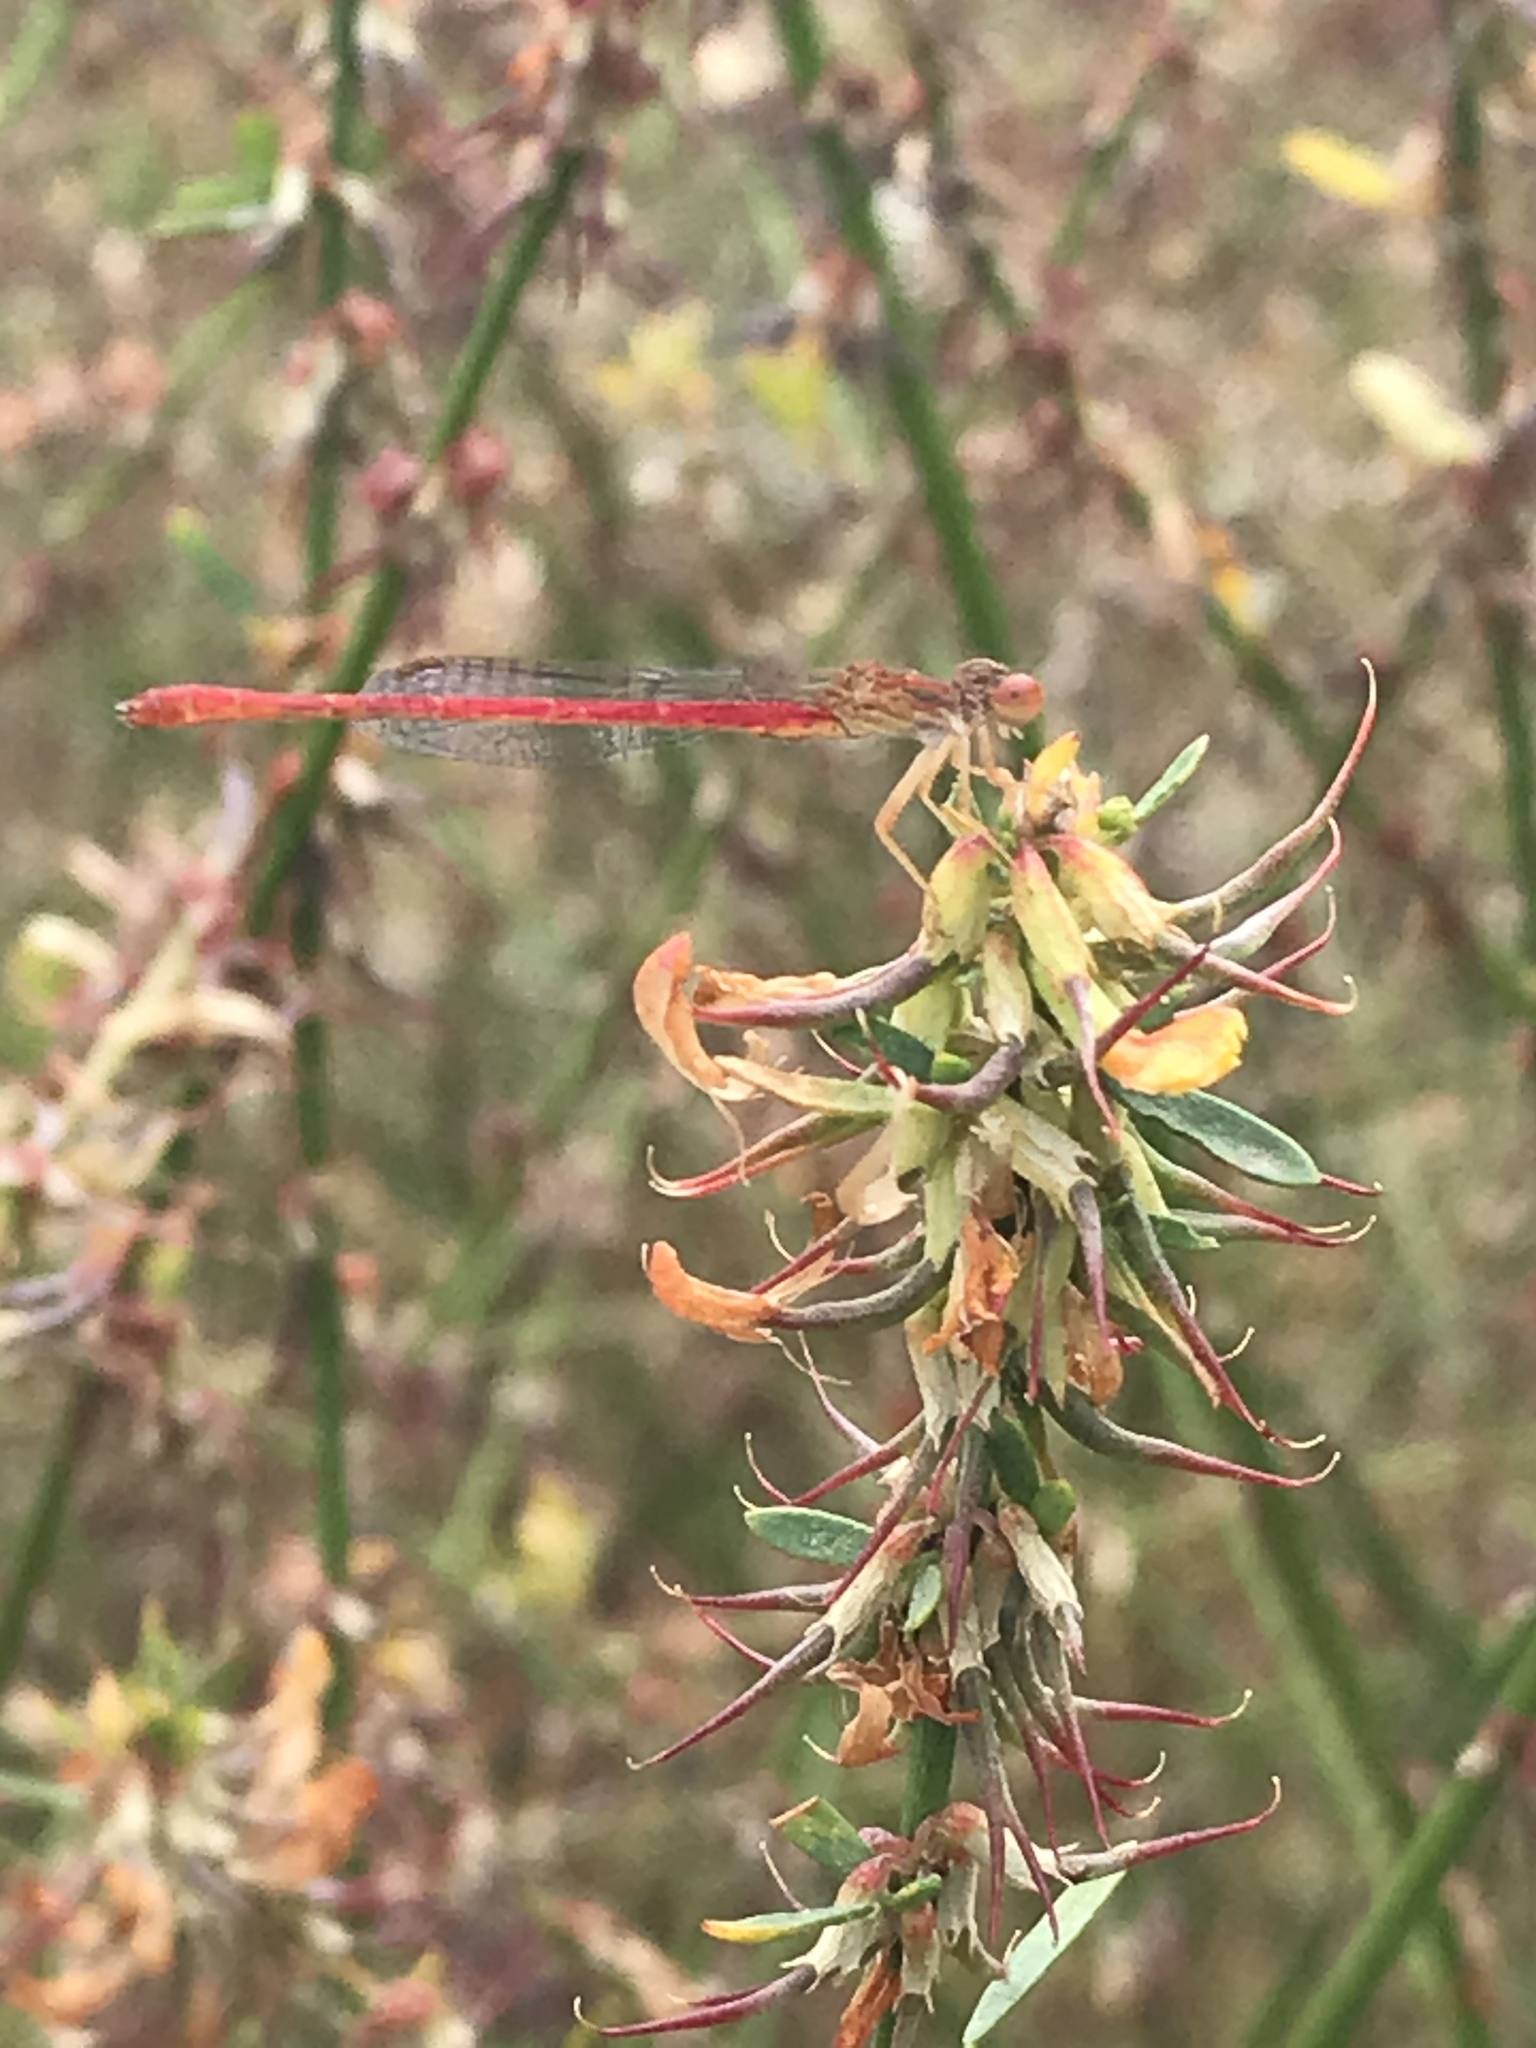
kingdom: Animalia
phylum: Arthropoda
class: Insecta
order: Odonata
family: Coenagrionidae
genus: Telebasis
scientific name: Telebasis salva
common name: Desert firetail
